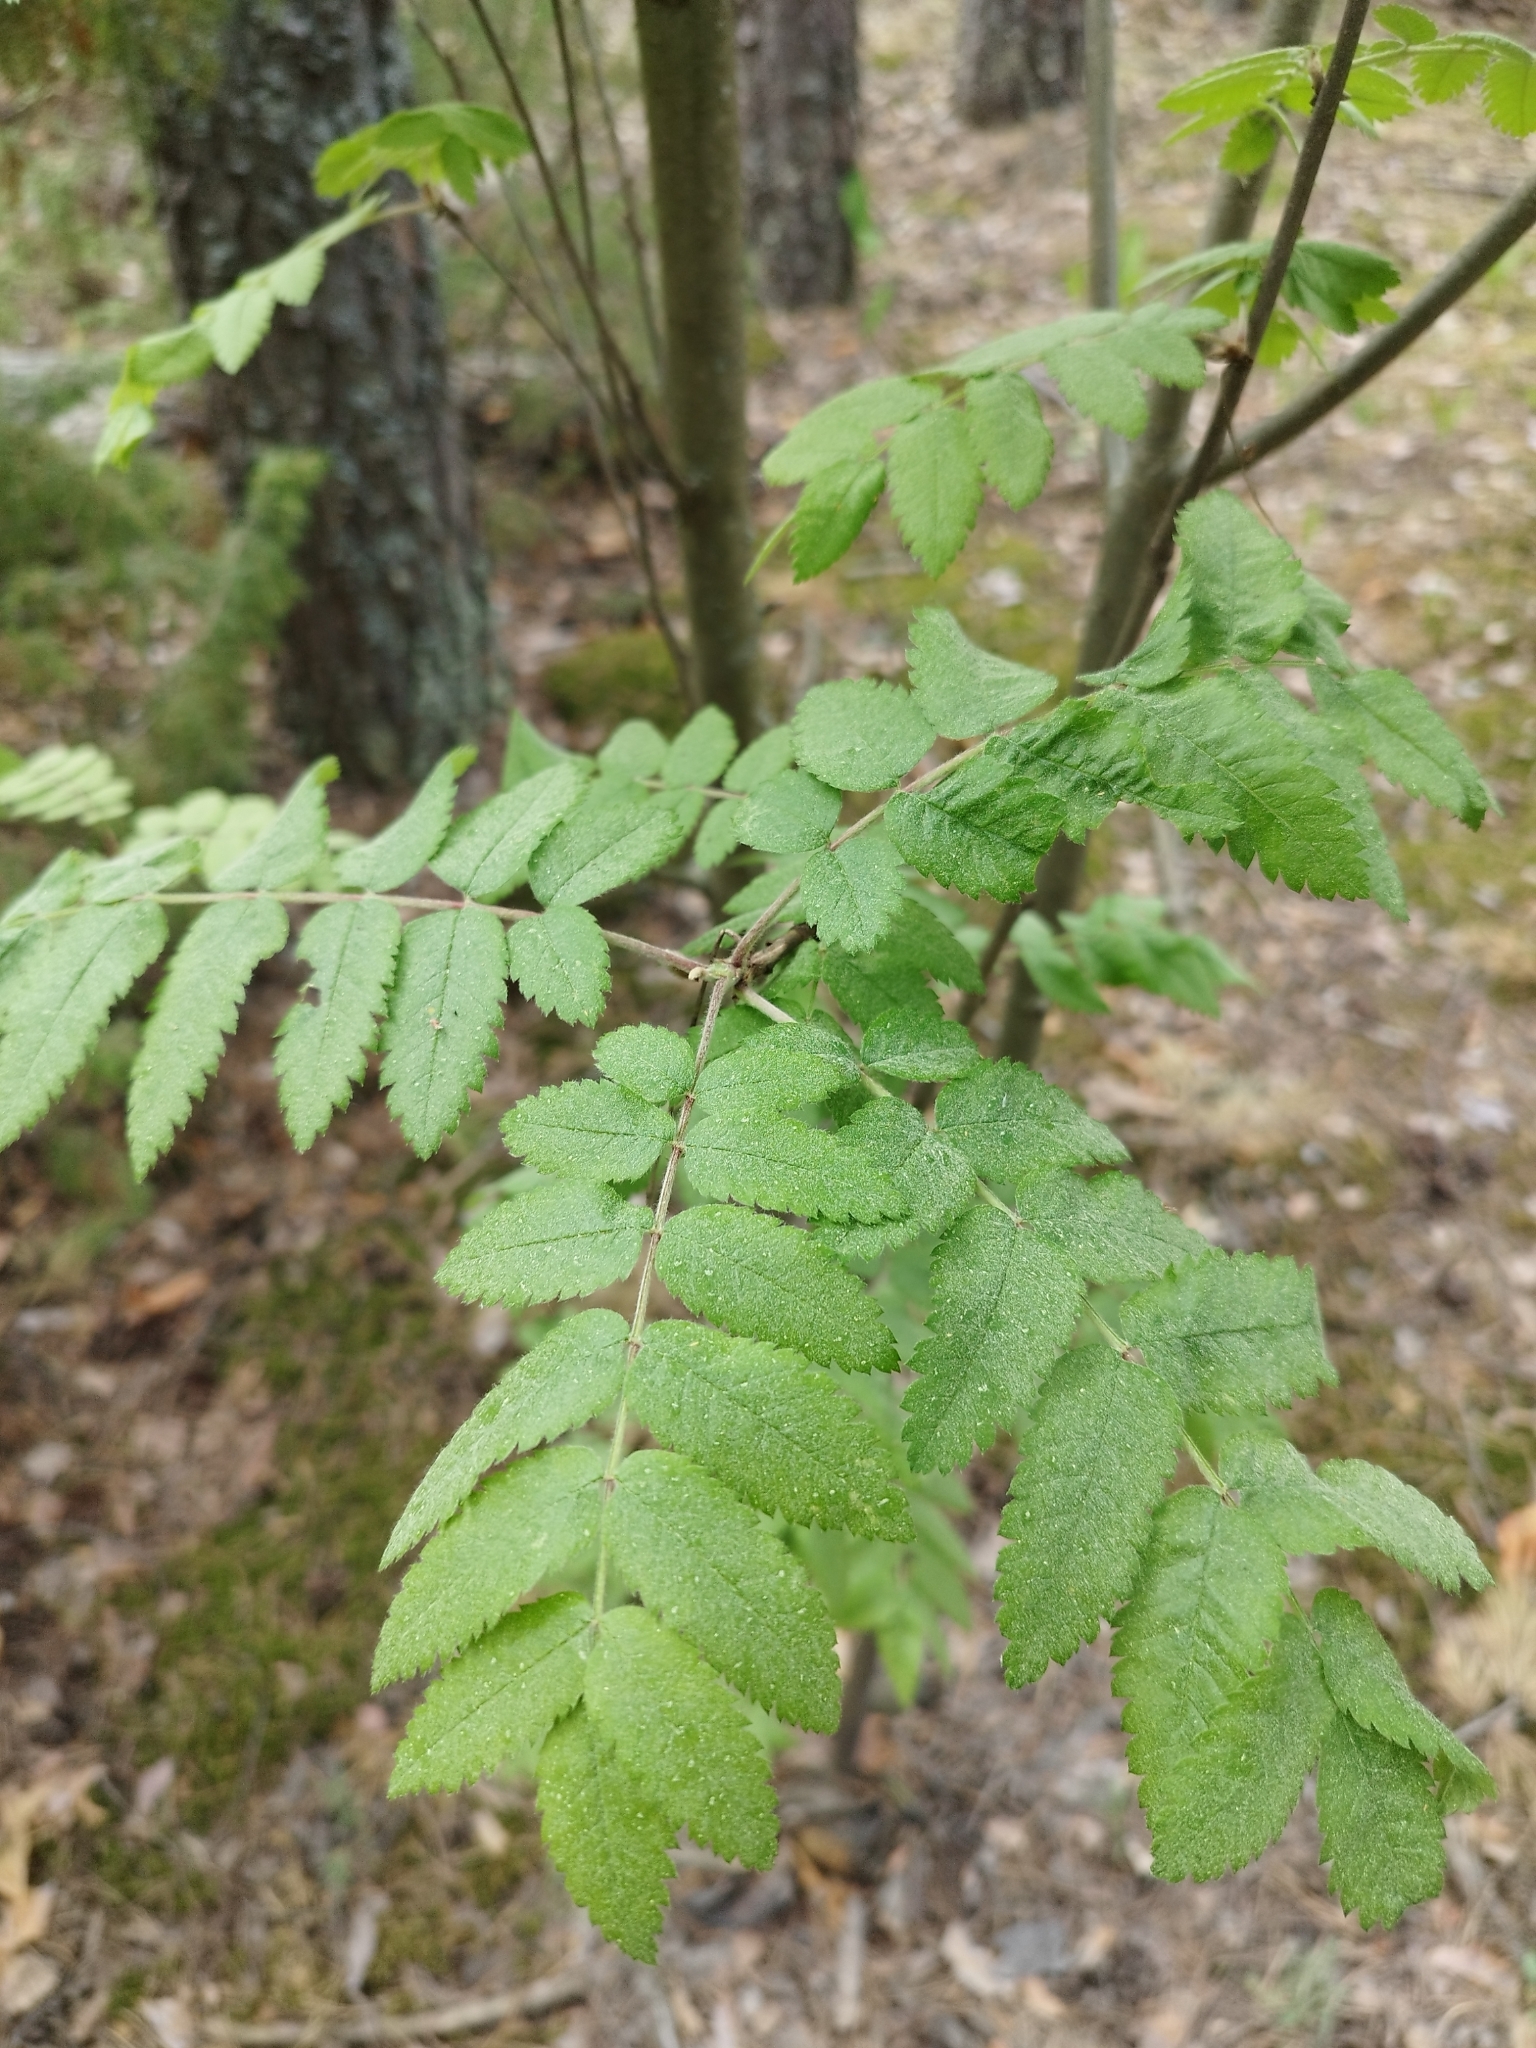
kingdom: Plantae
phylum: Tracheophyta
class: Magnoliopsida
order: Rosales
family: Rosaceae
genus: Sorbus
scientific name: Sorbus aucuparia
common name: Rowan
